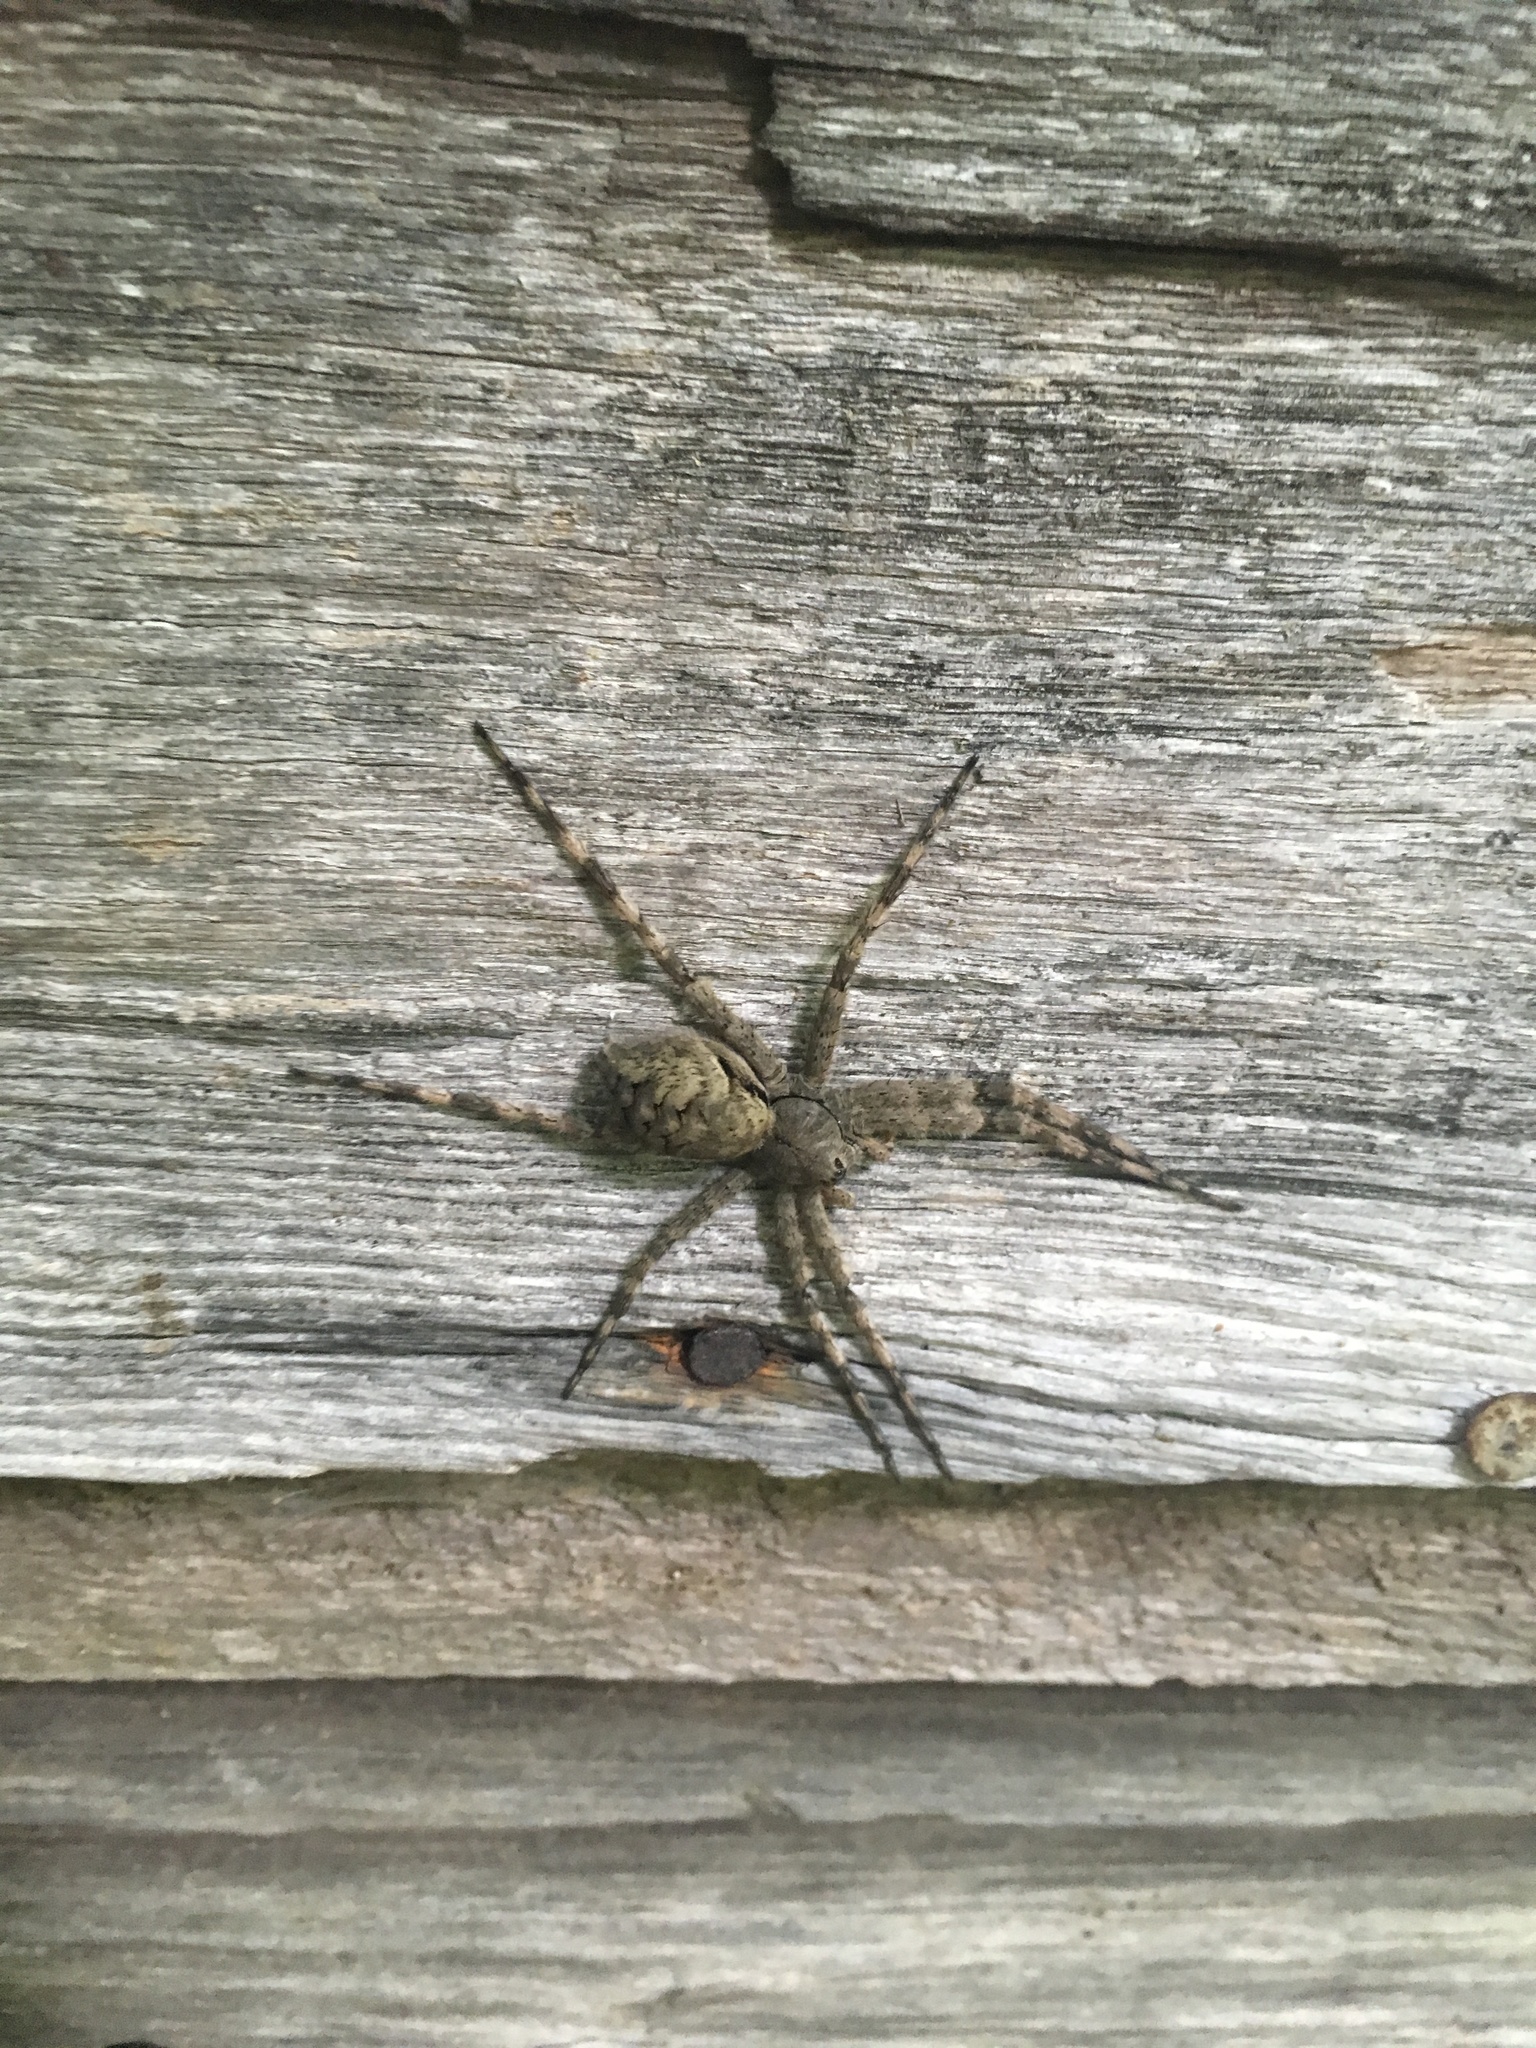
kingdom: Animalia
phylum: Arthropoda
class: Arachnida
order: Araneae
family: Pisauridae
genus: Dolomedes
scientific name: Dolomedes tenebrosus
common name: Dark fishing spider
